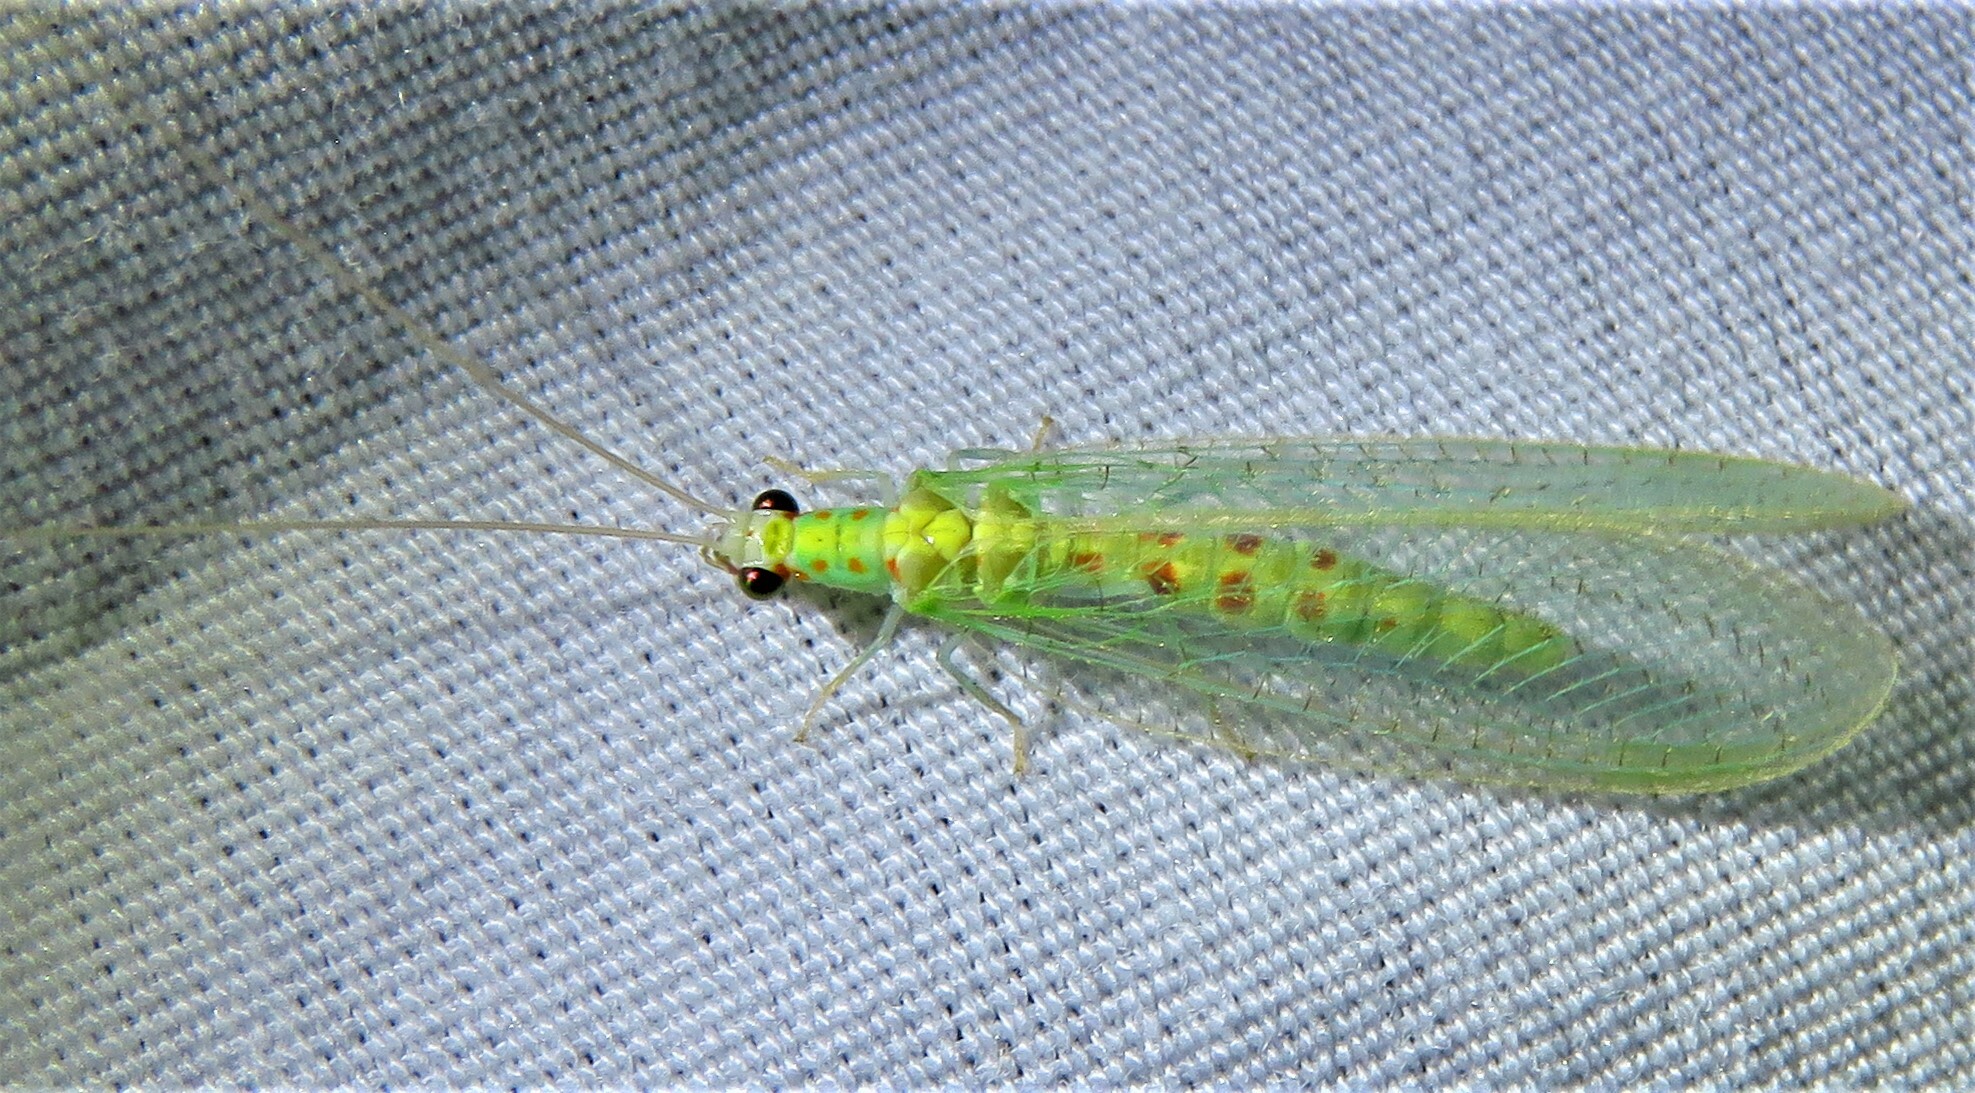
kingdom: Animalia
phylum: Arthropoda
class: Insecta
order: Neuroptera
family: Chrysopidae
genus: Chrysopa
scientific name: Chrysopa quadripunctata
